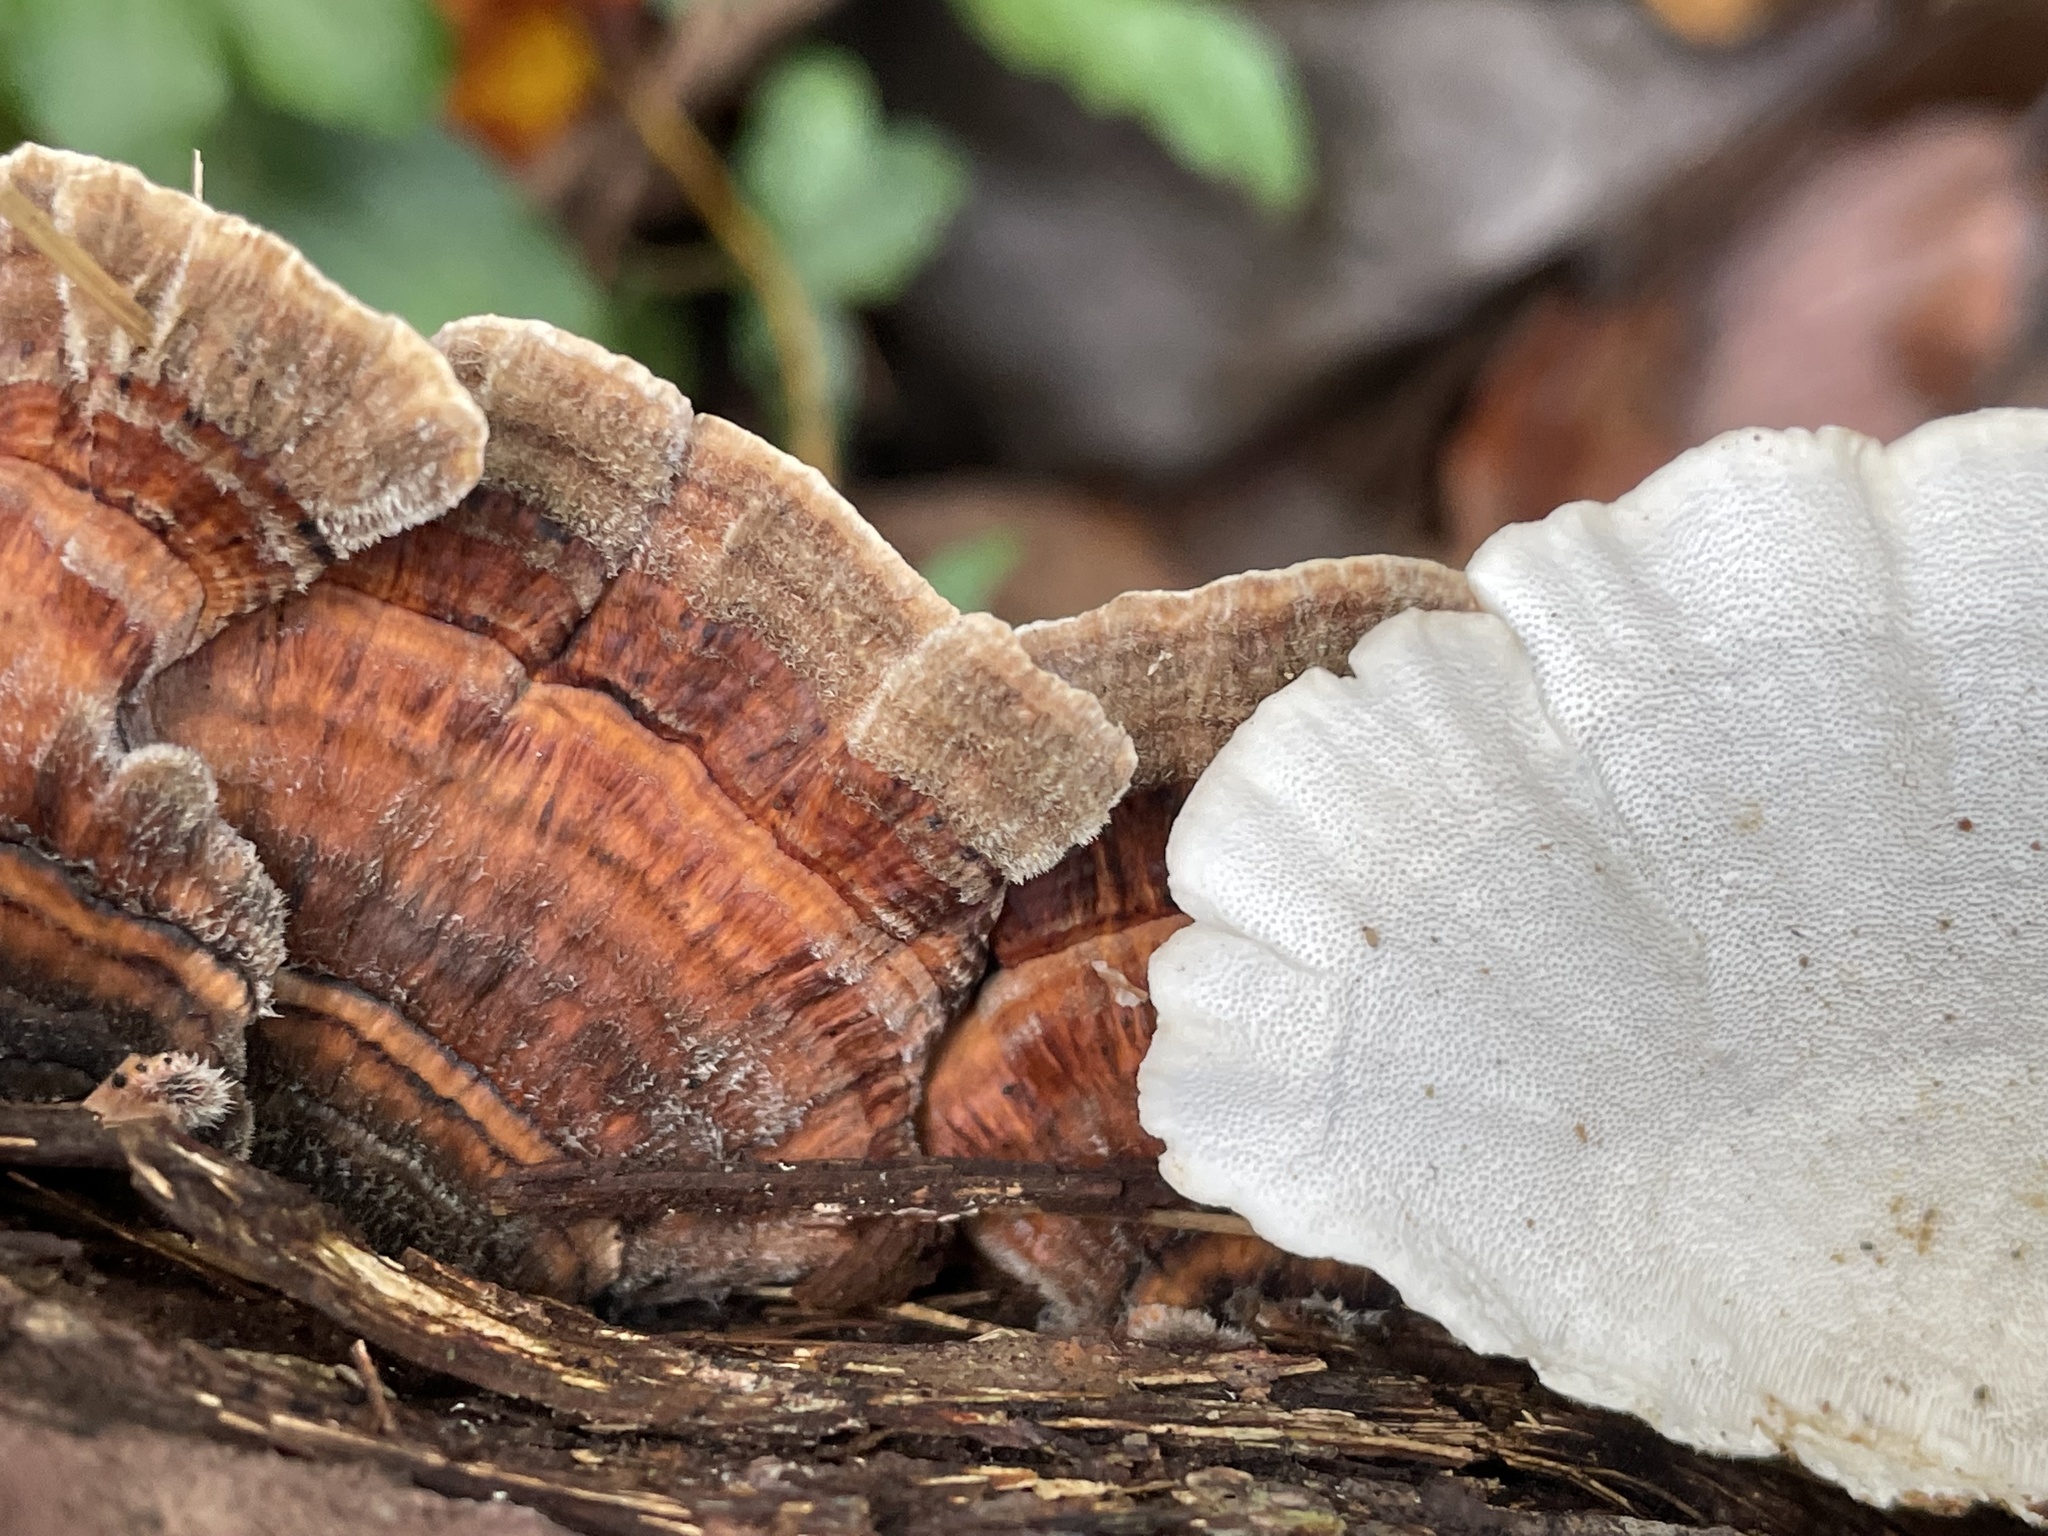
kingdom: Fungi
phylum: Basidiomycota
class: Agaricomycetes
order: Polyporales
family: Polyporaceae
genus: Trametes
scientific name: Trametes versicolor
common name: Turkeytail
